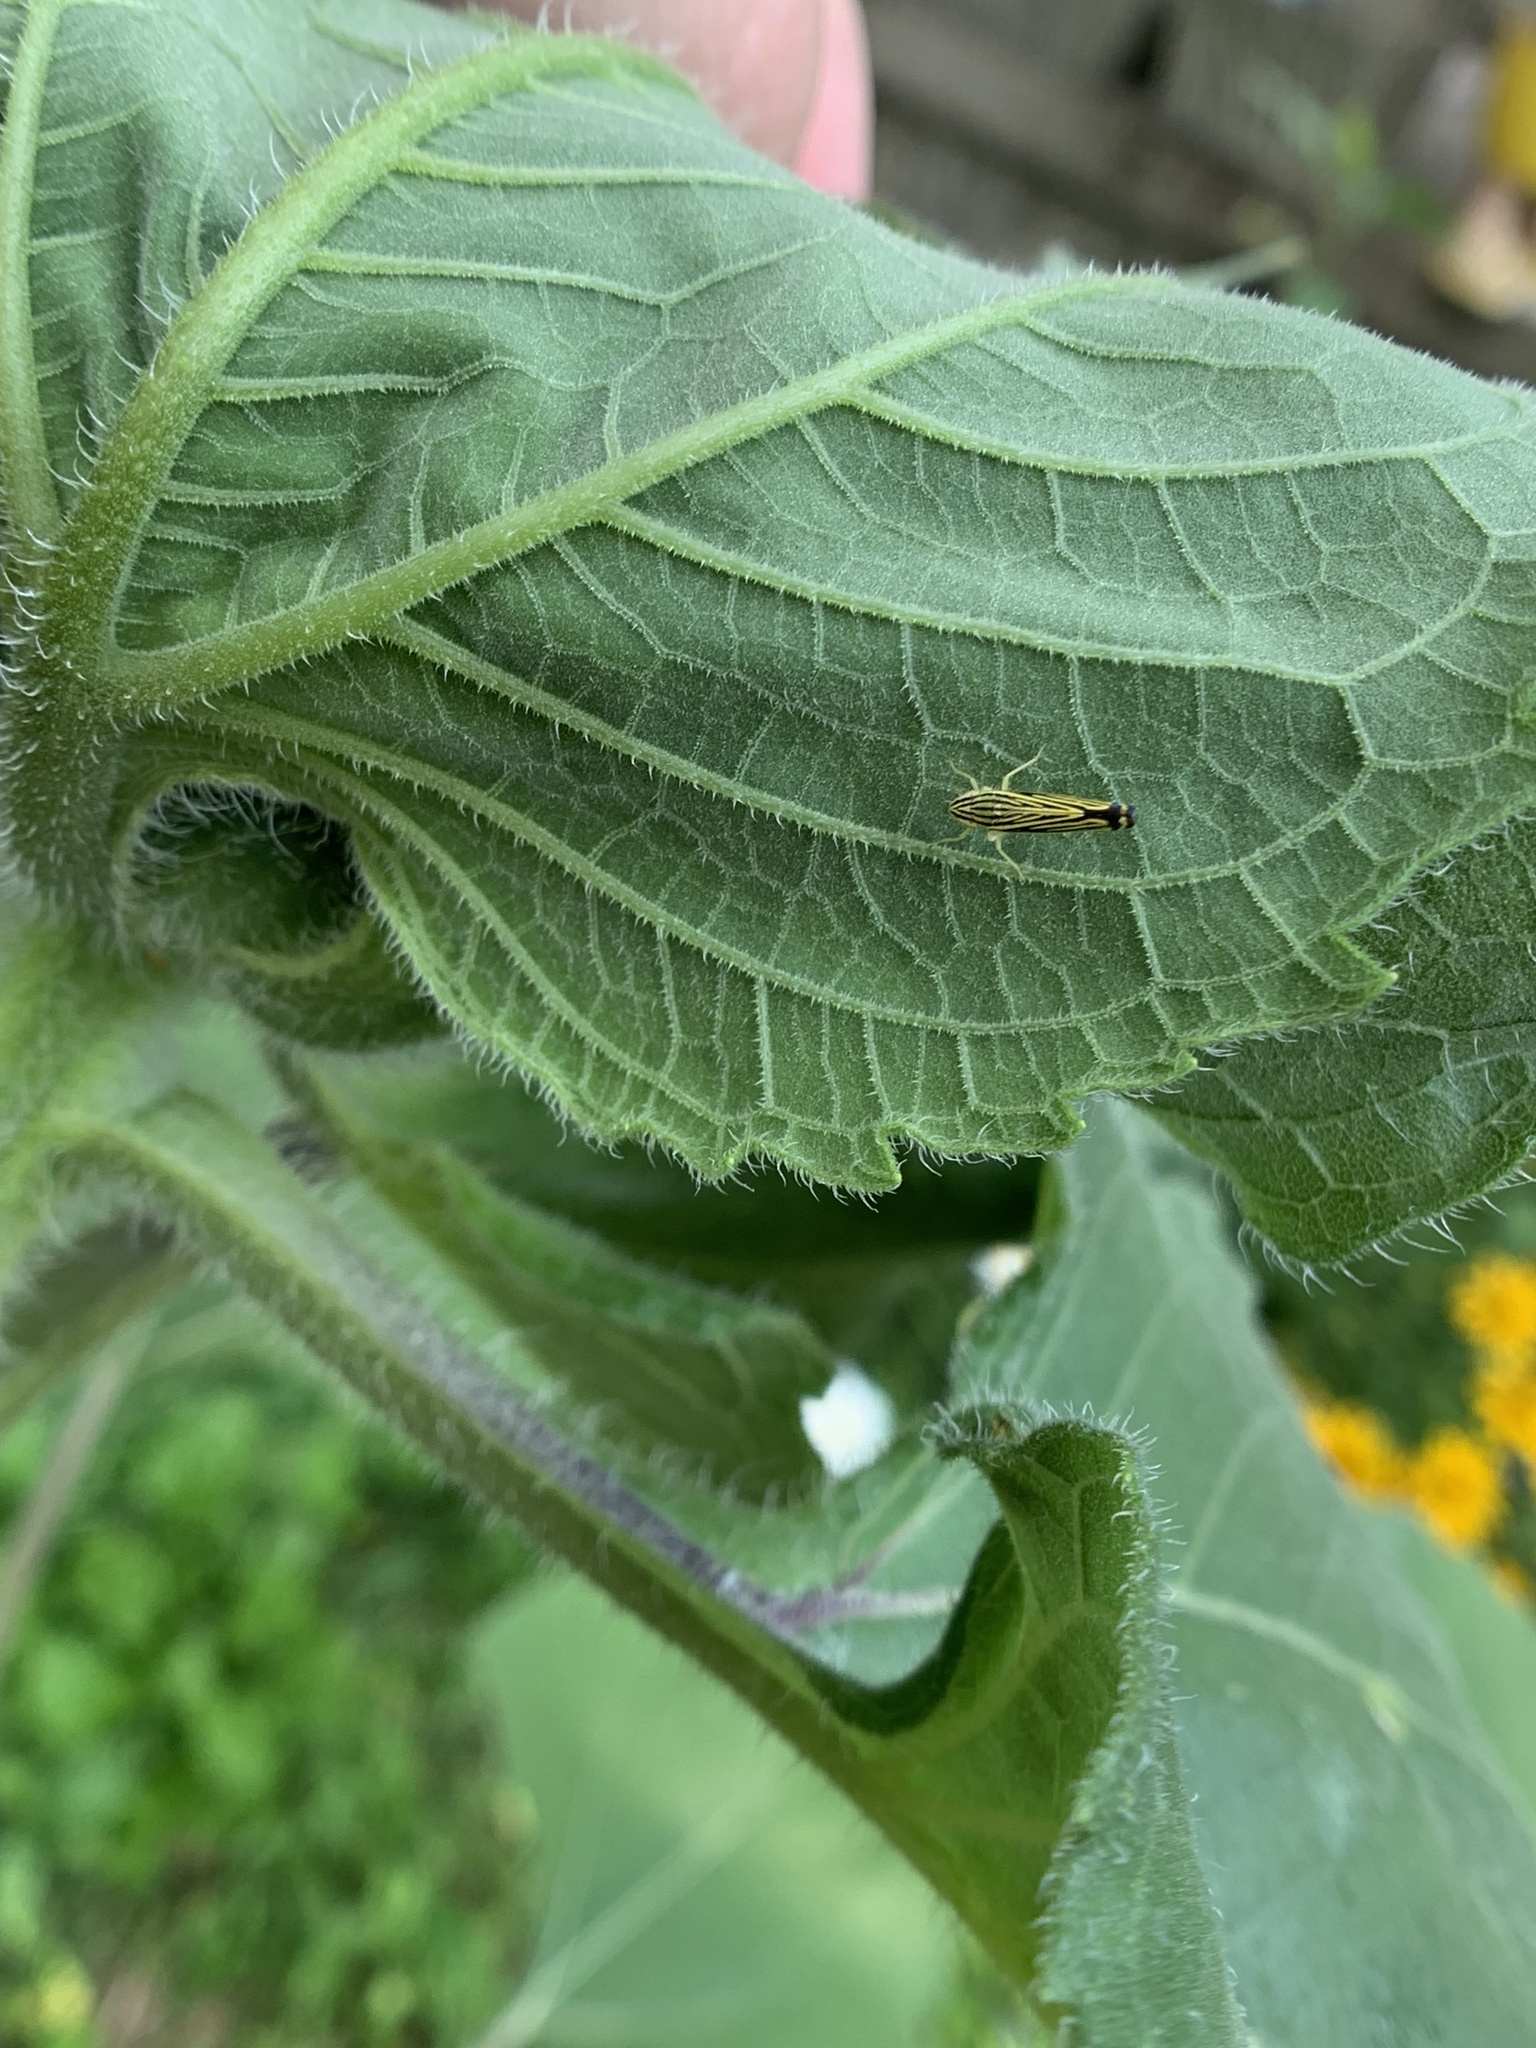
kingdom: Animalia
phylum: Arthropoda
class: Insecta
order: Hemiptera
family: Cicadellidae
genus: Sibovia
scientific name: Sibovia occatoria
